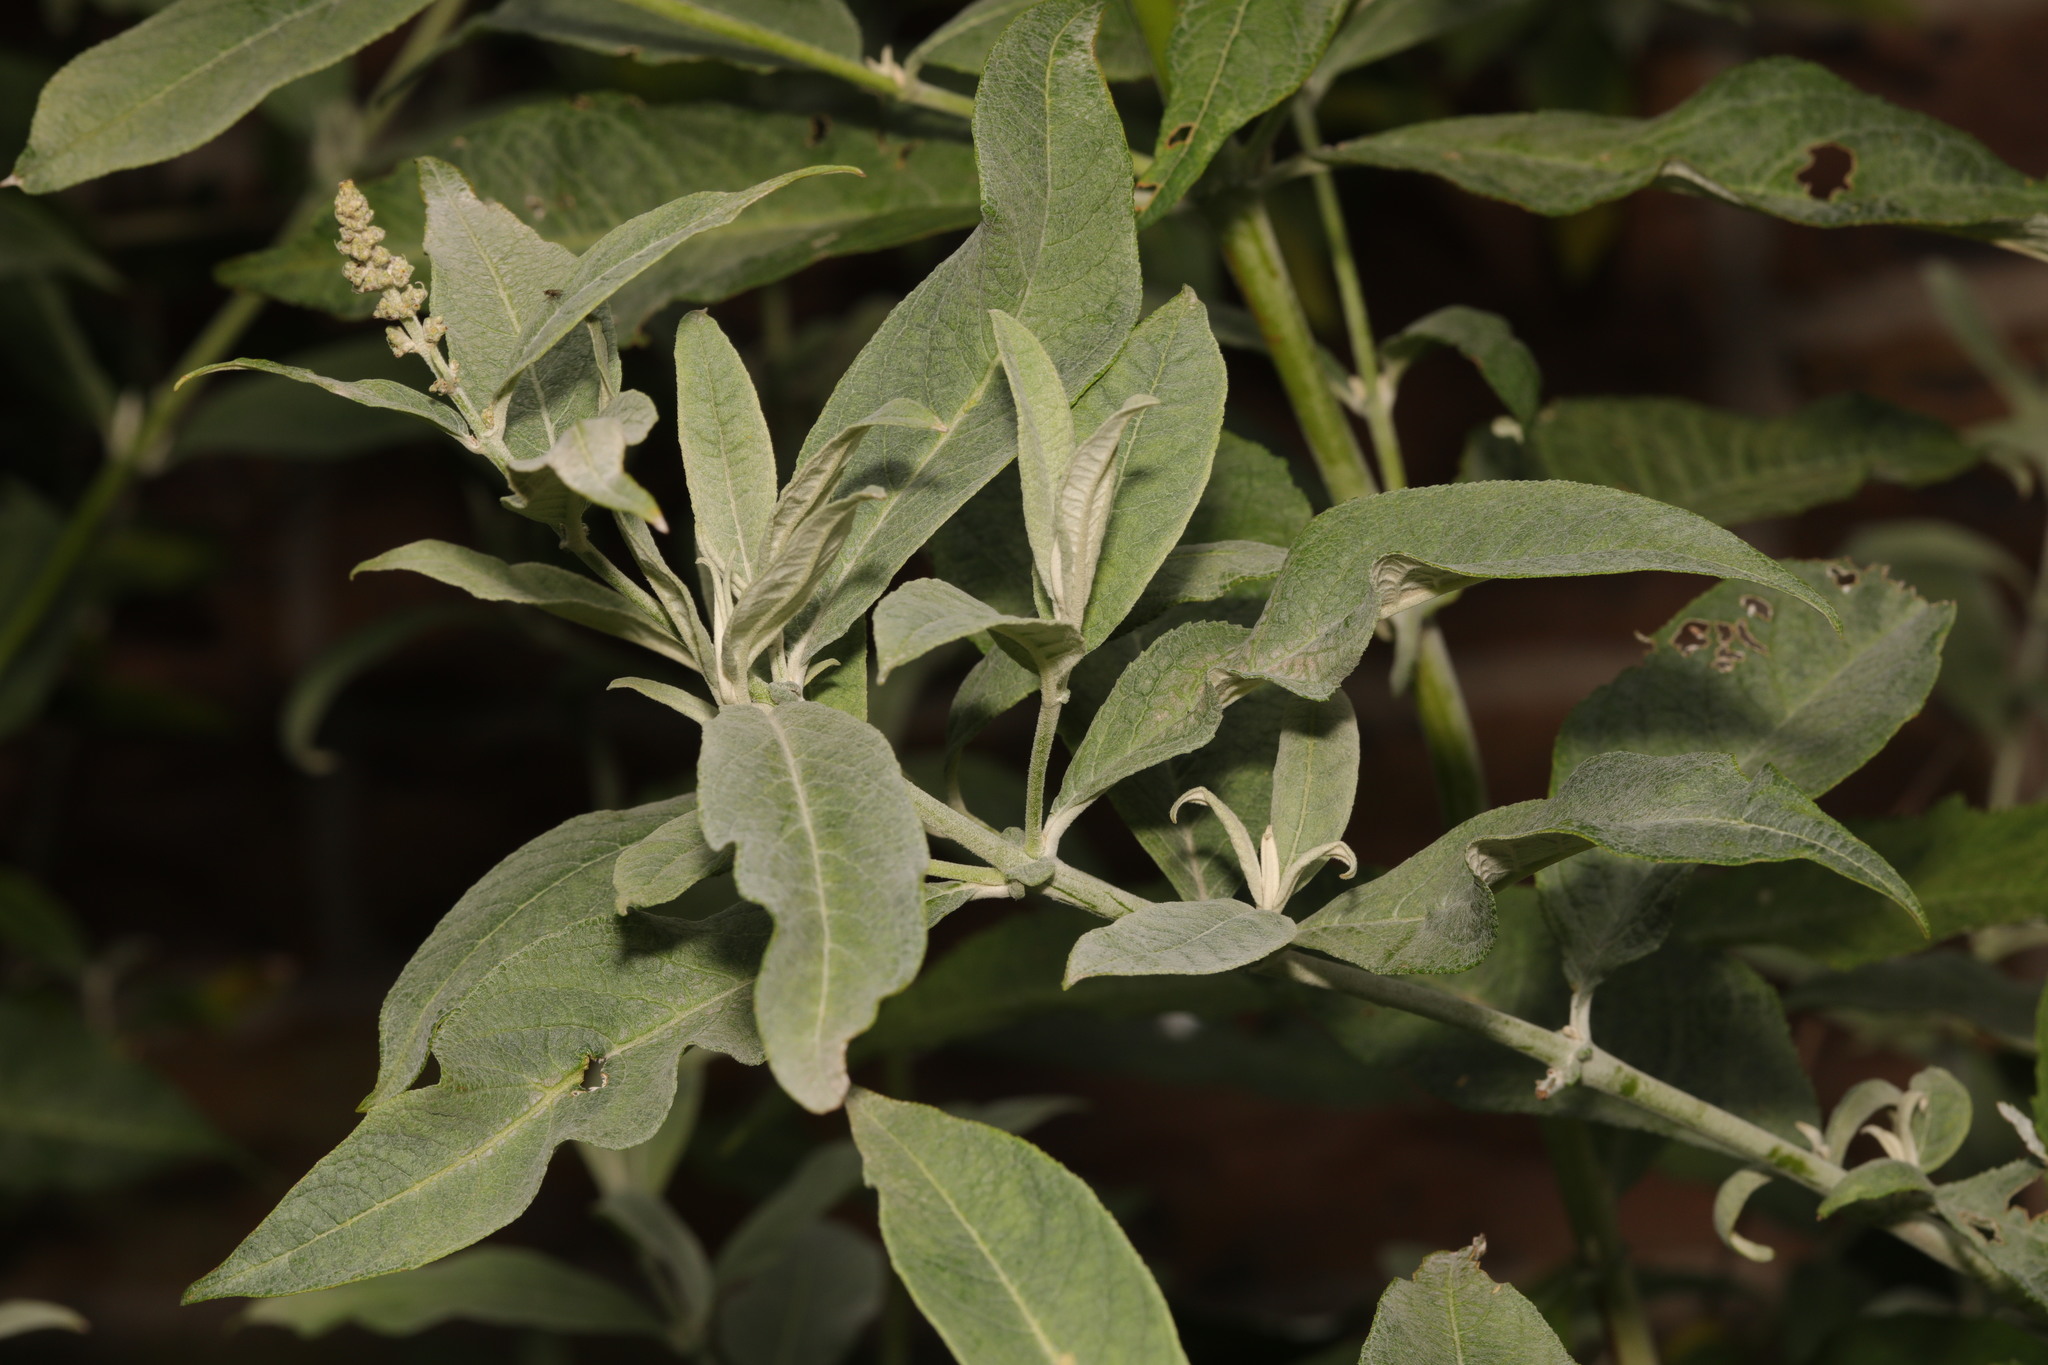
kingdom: Plantae
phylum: Tracheophyta
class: Magnoliopsida
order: Lamiales
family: Scrophulariaceae
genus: Buddleja
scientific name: Buddleja davidii
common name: Butterfly-bush
